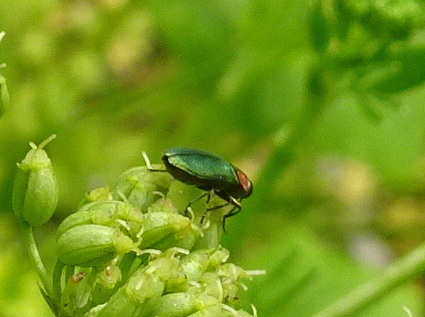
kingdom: Animalia
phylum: Arthropoda
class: Insecta
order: Coleoptera
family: Buprestidae
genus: Anthaxia
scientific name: Anthaxia nitidula
